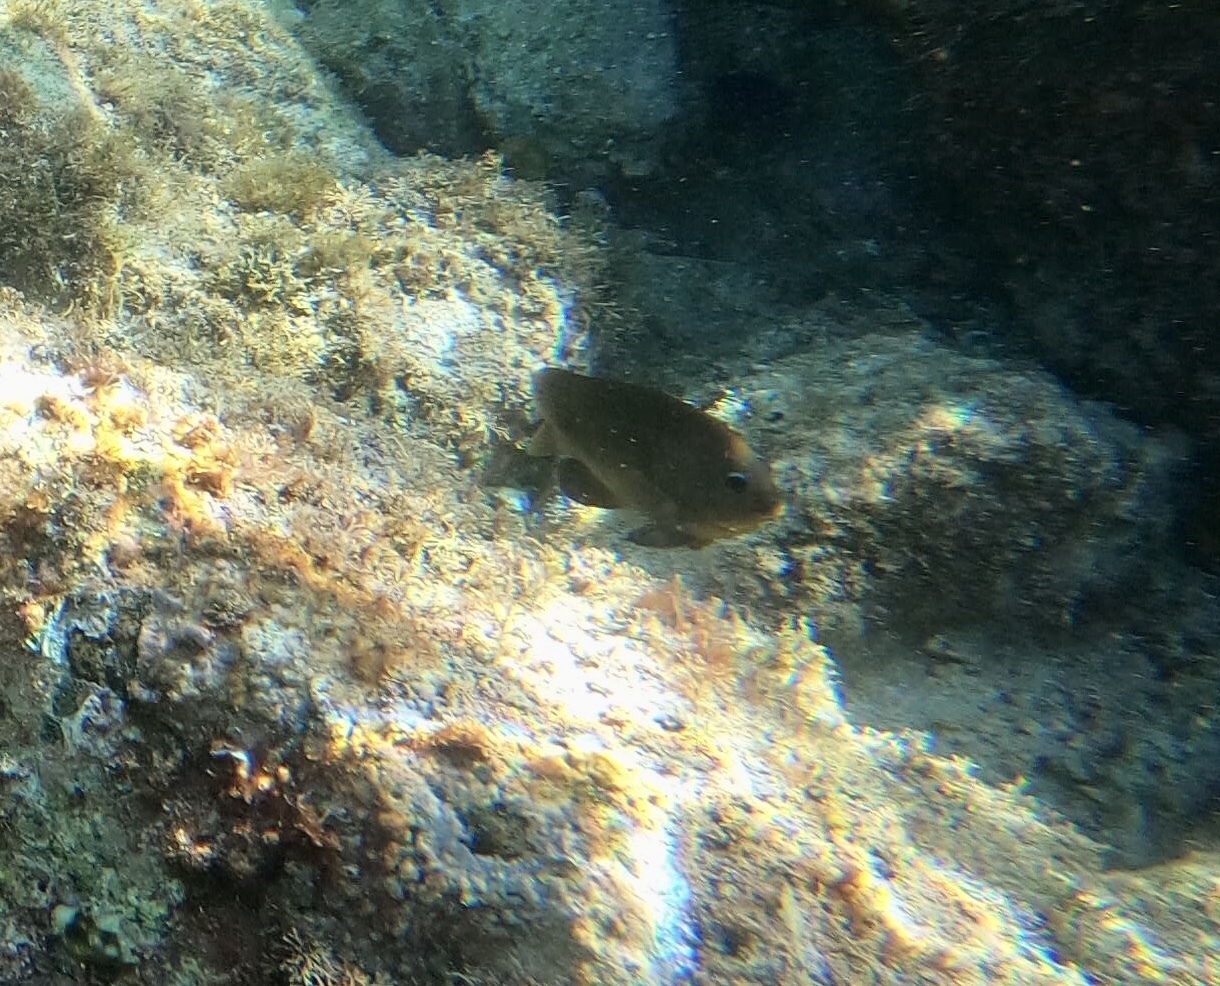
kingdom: Animalia
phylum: Chordata
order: Perciformes
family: Pomacentridae
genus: Stegastes
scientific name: Stegastes flavilatus
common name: Beaubrummel
